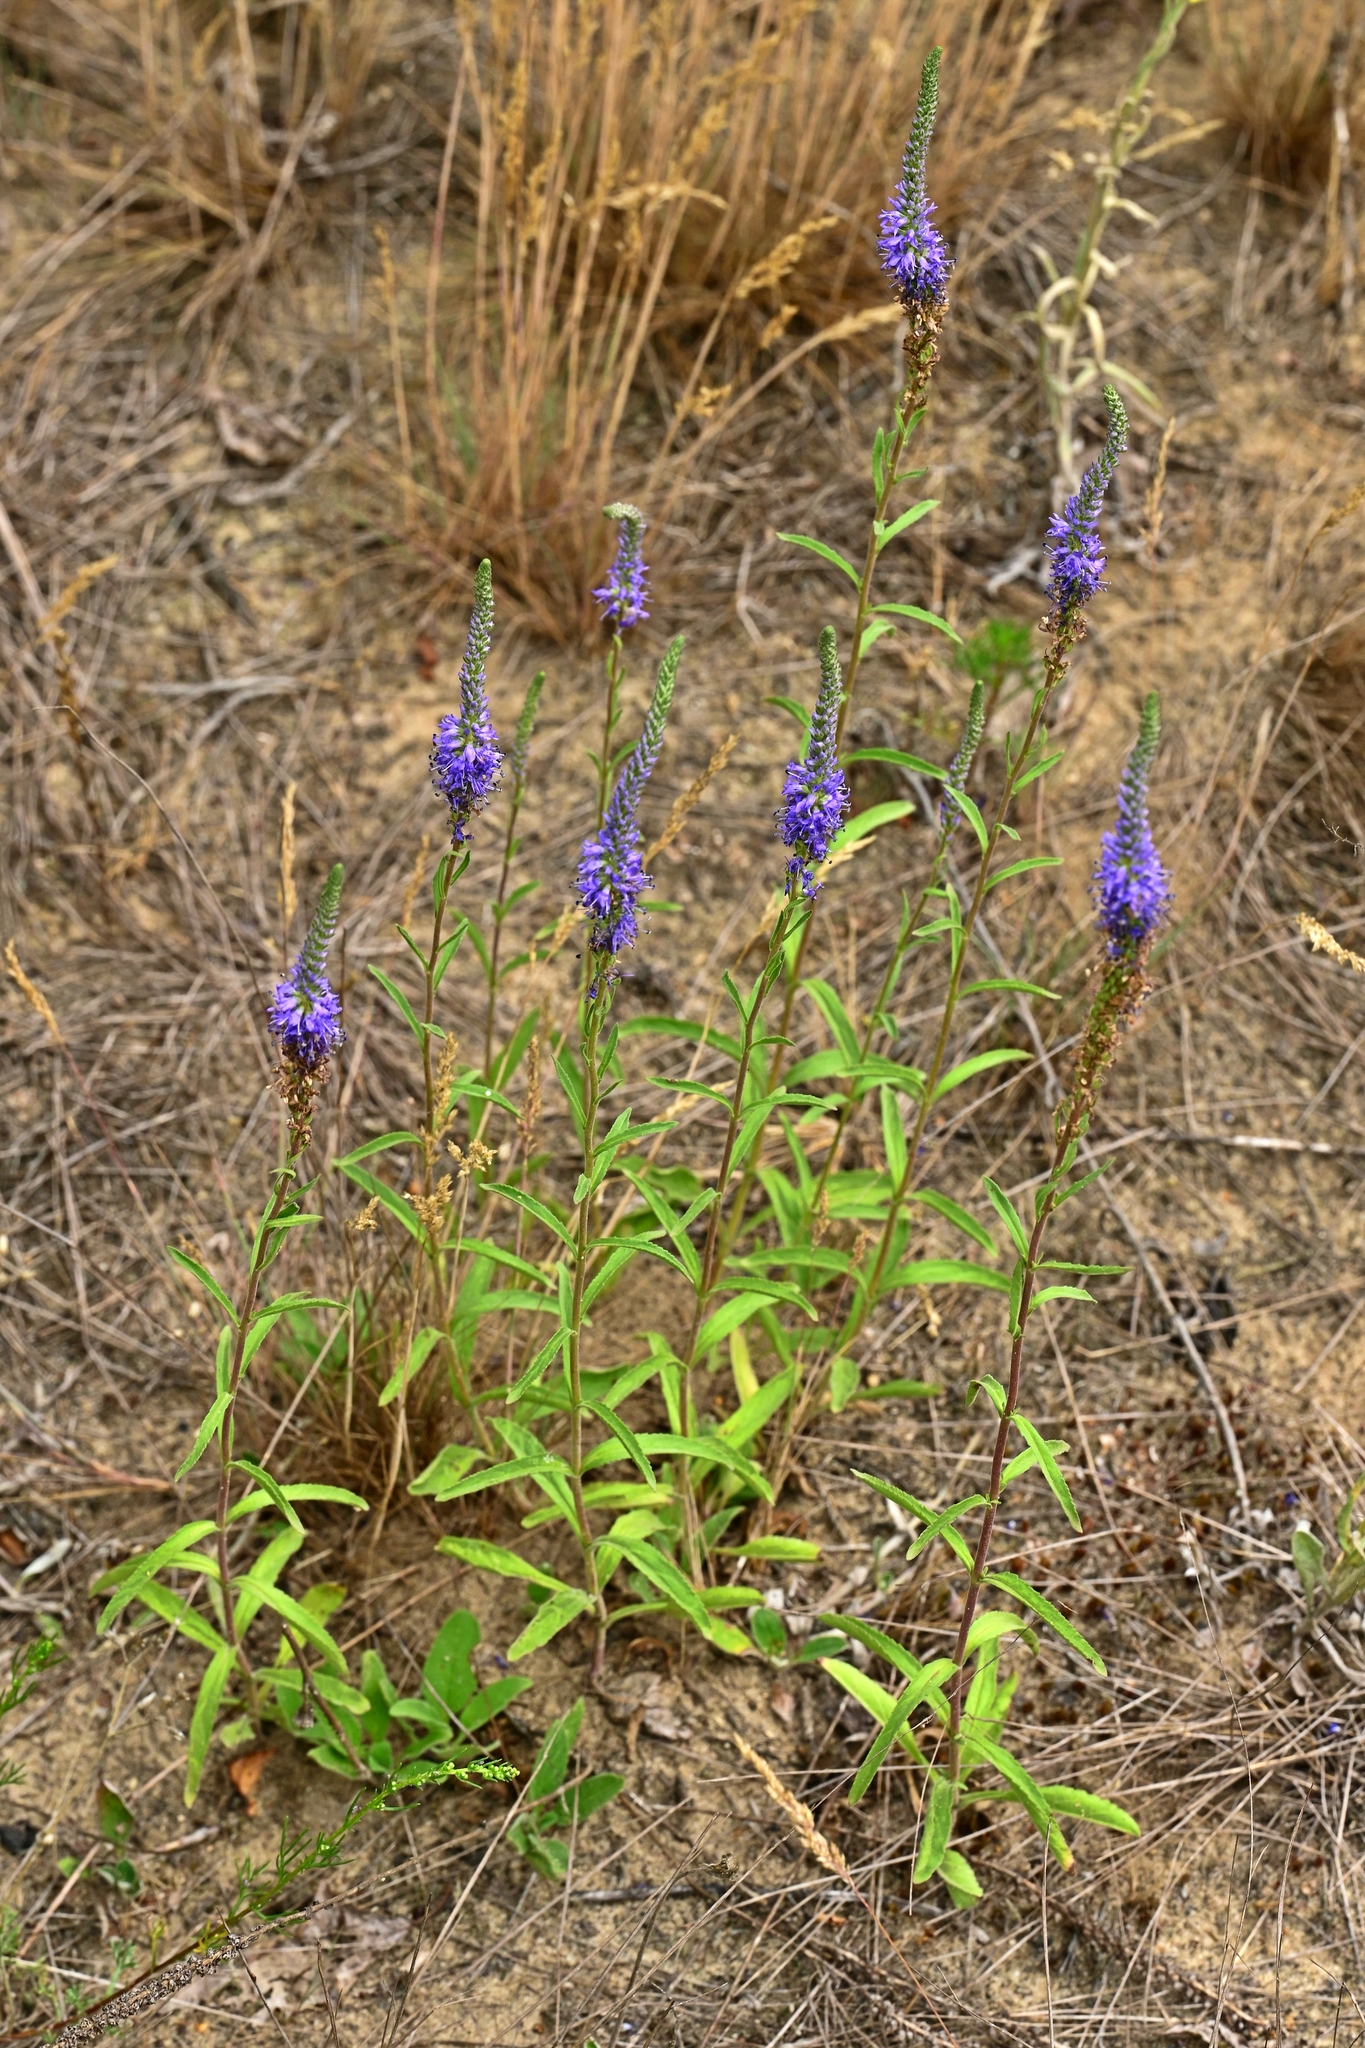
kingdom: Plantae
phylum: Tracheophyta
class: Magnoliopsida
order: Lamiales
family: Plantaginaceae
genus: Veronica
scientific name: Veronica spicata
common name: Spiked speedwell
